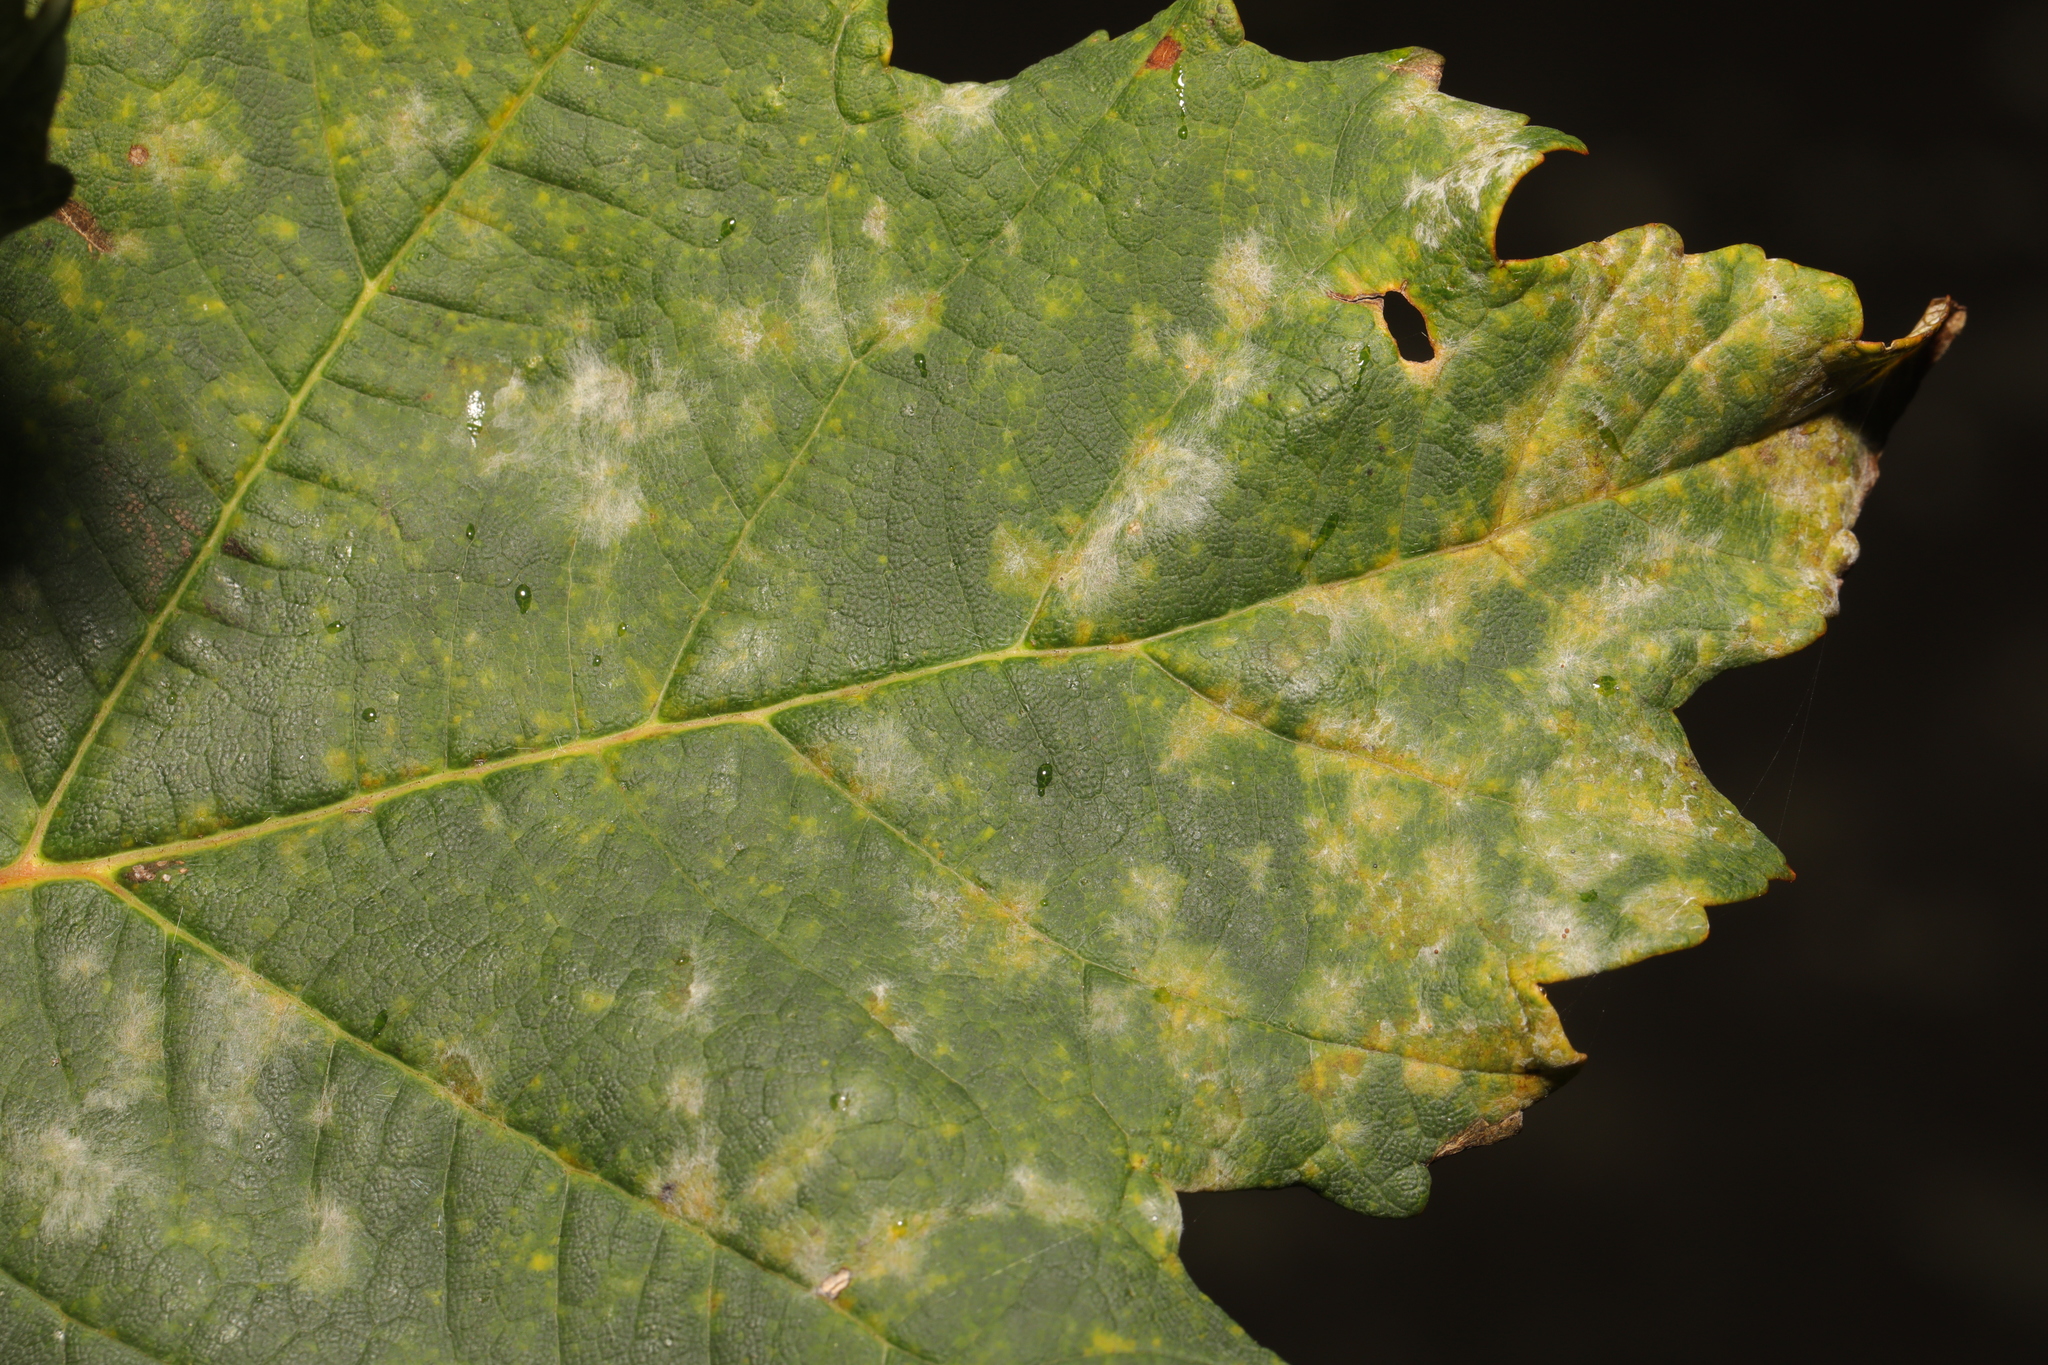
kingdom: Fungi
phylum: Ascomycota
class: Leotiomycetes
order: Helotiales
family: Erysiphaceae
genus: Sawadaea
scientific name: Sawadaea bicornis
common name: Maple mildew
